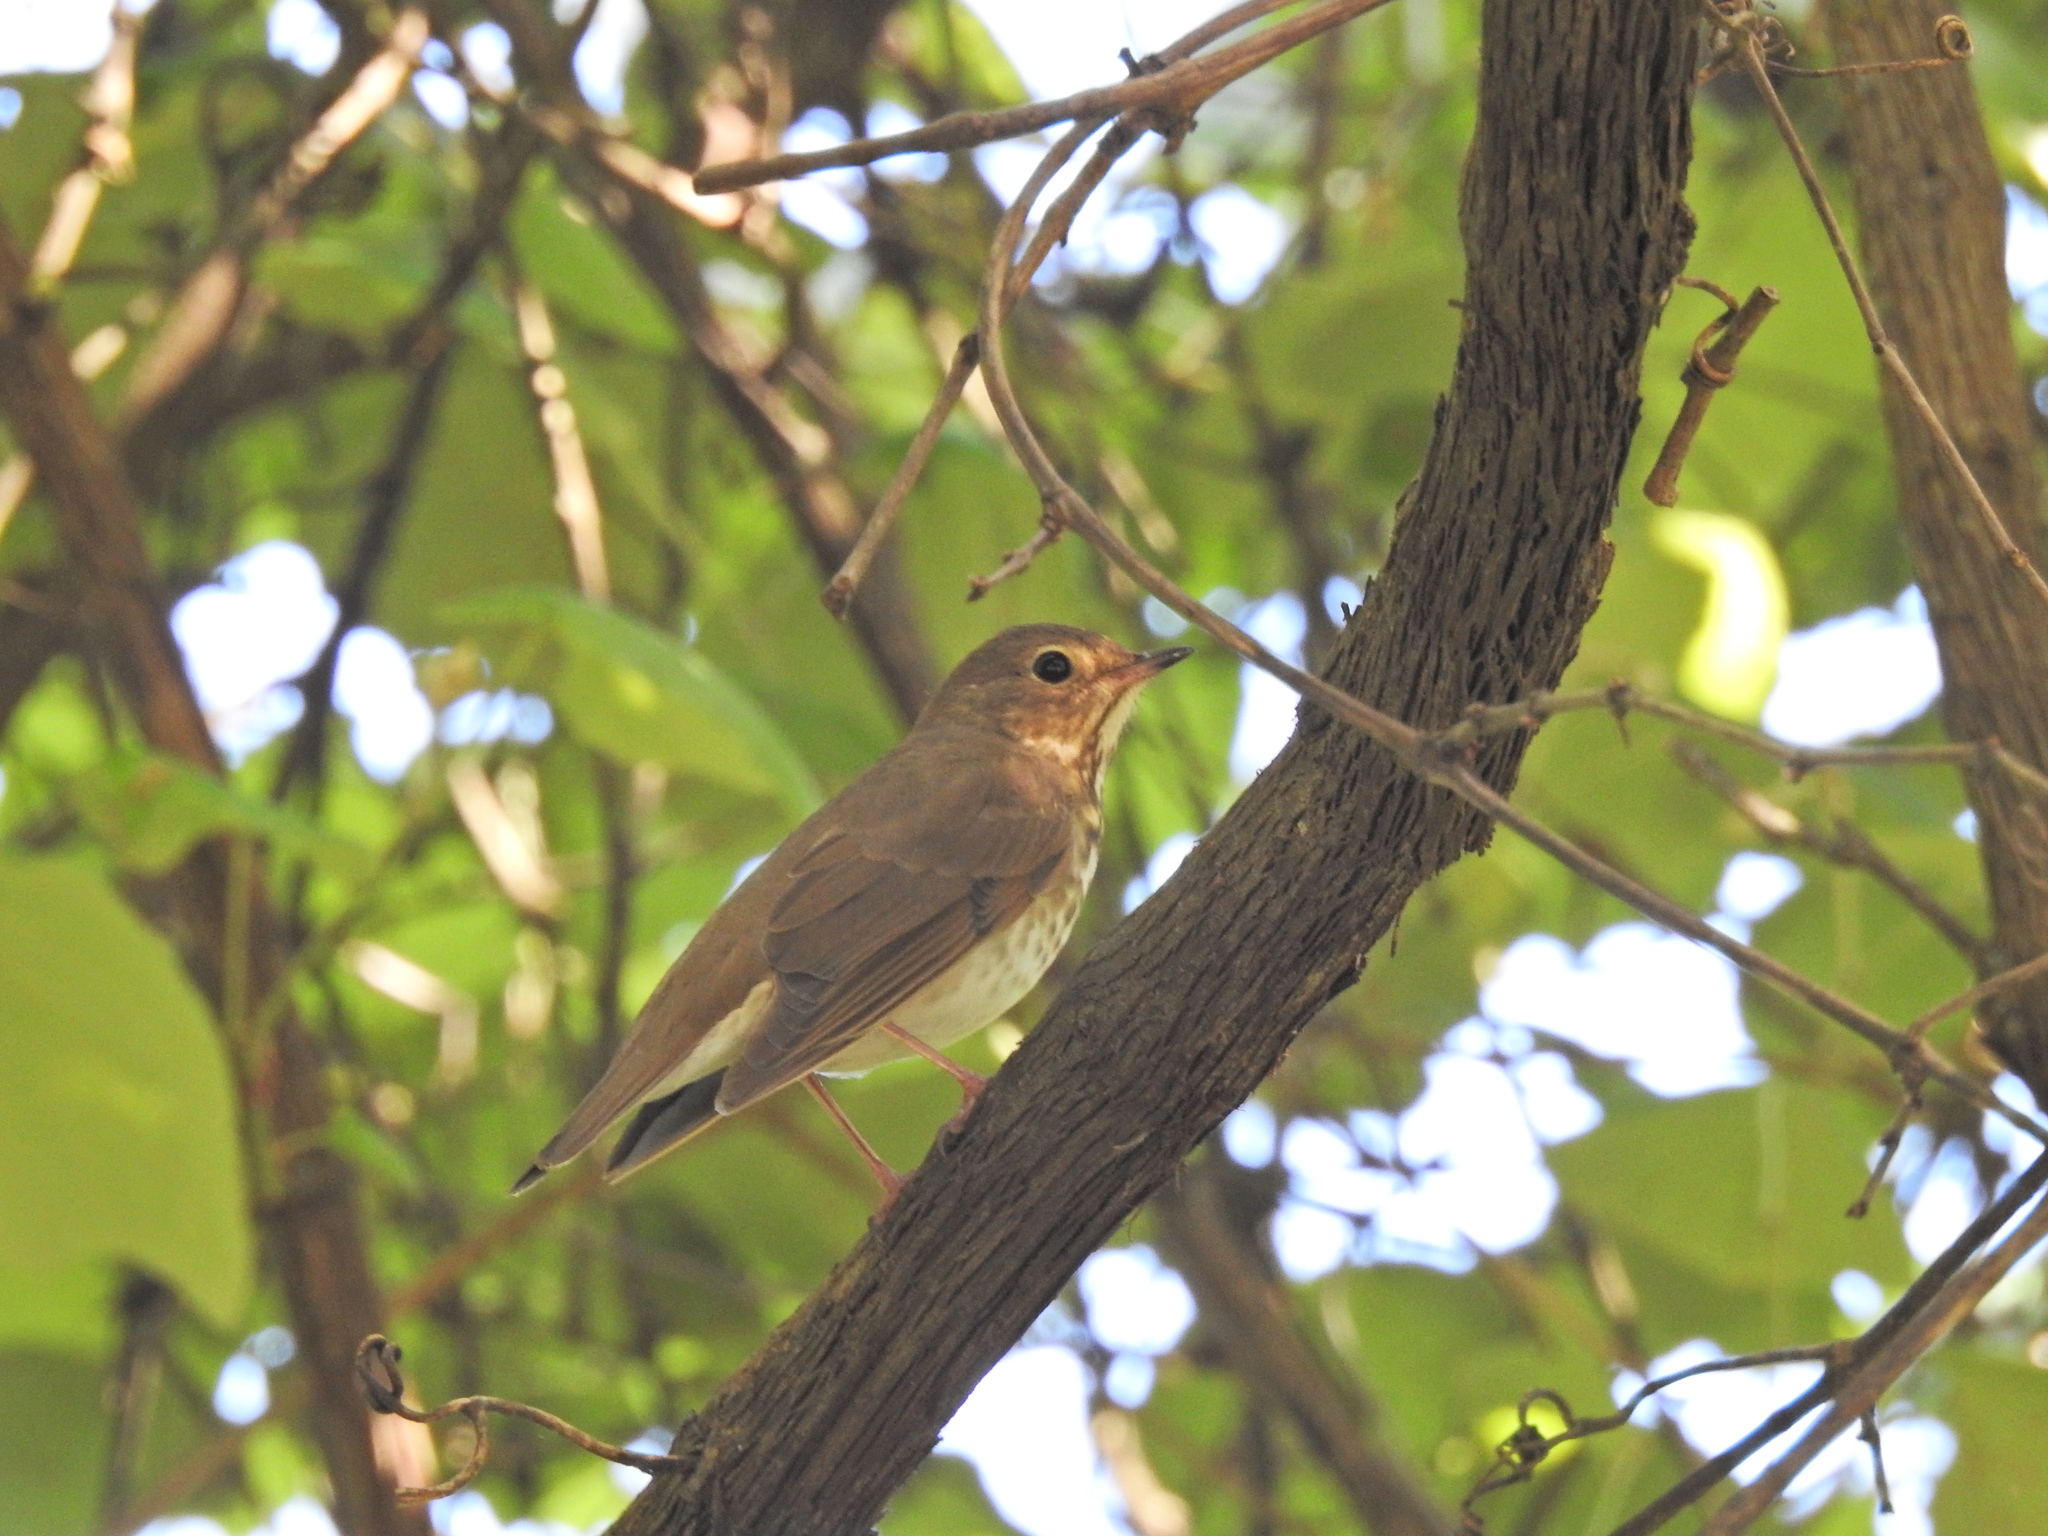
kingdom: Animalia
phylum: Chordata
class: Aves
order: Passeriformes
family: Turdidae
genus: Catharus
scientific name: Catharus ustulatus
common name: Swainson's thrush
